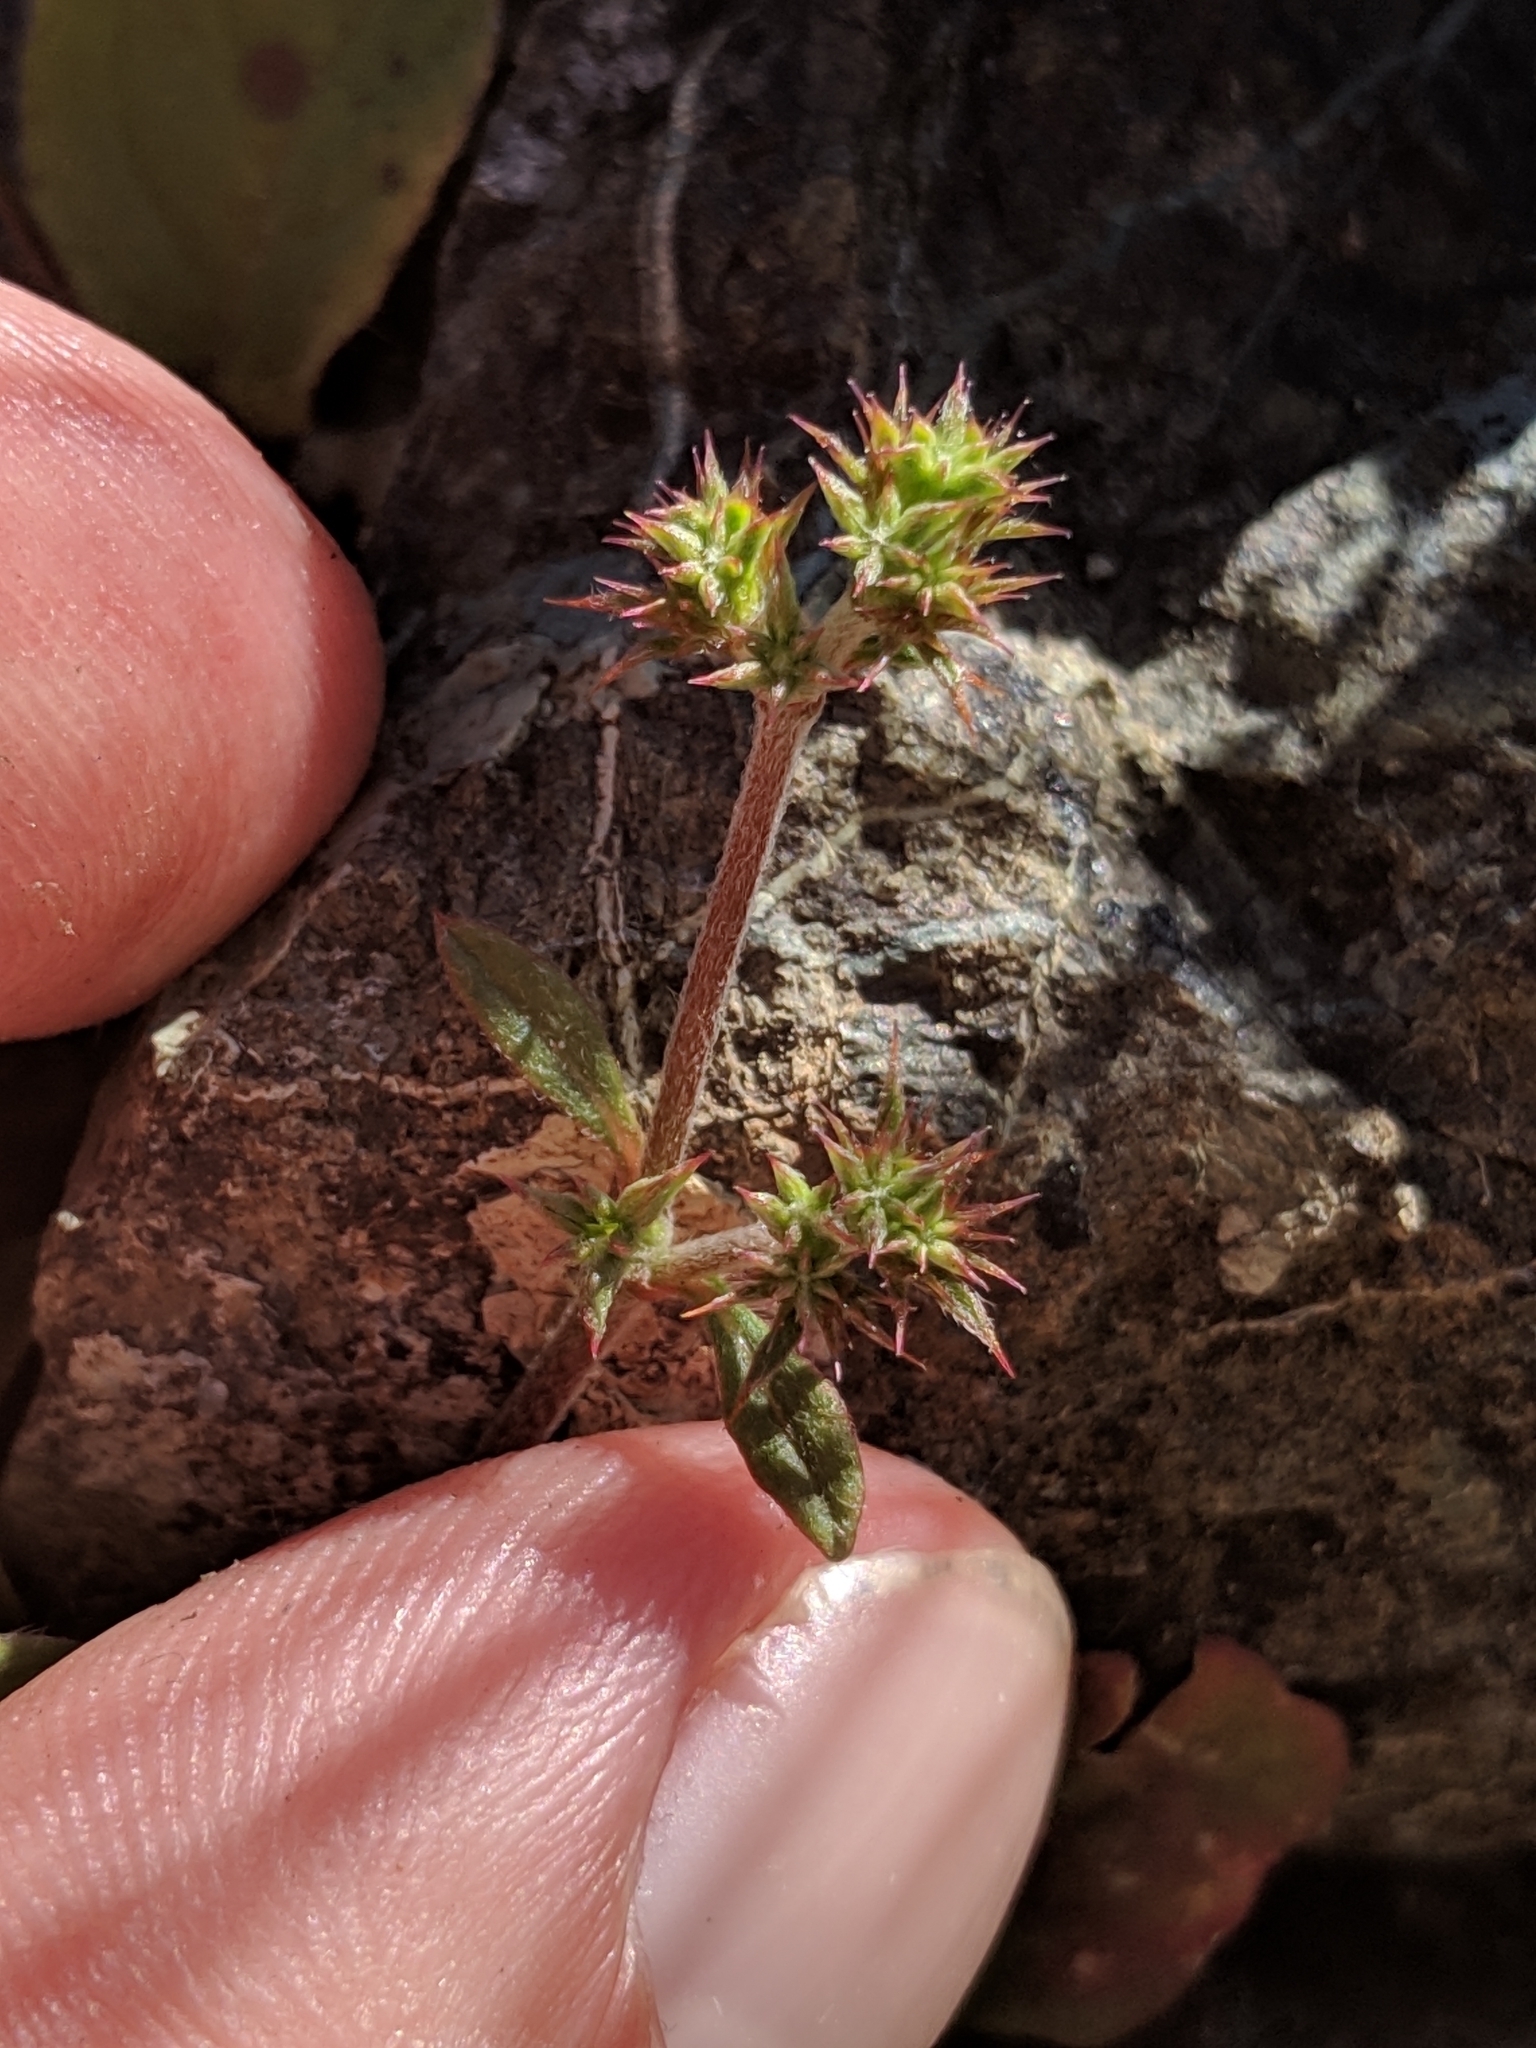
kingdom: Plantae
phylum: Tracheophyta
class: Magnoliopsida
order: Caryophyllales
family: Polygonaceae
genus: Chorizanthe
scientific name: Chorizanthe breweri
